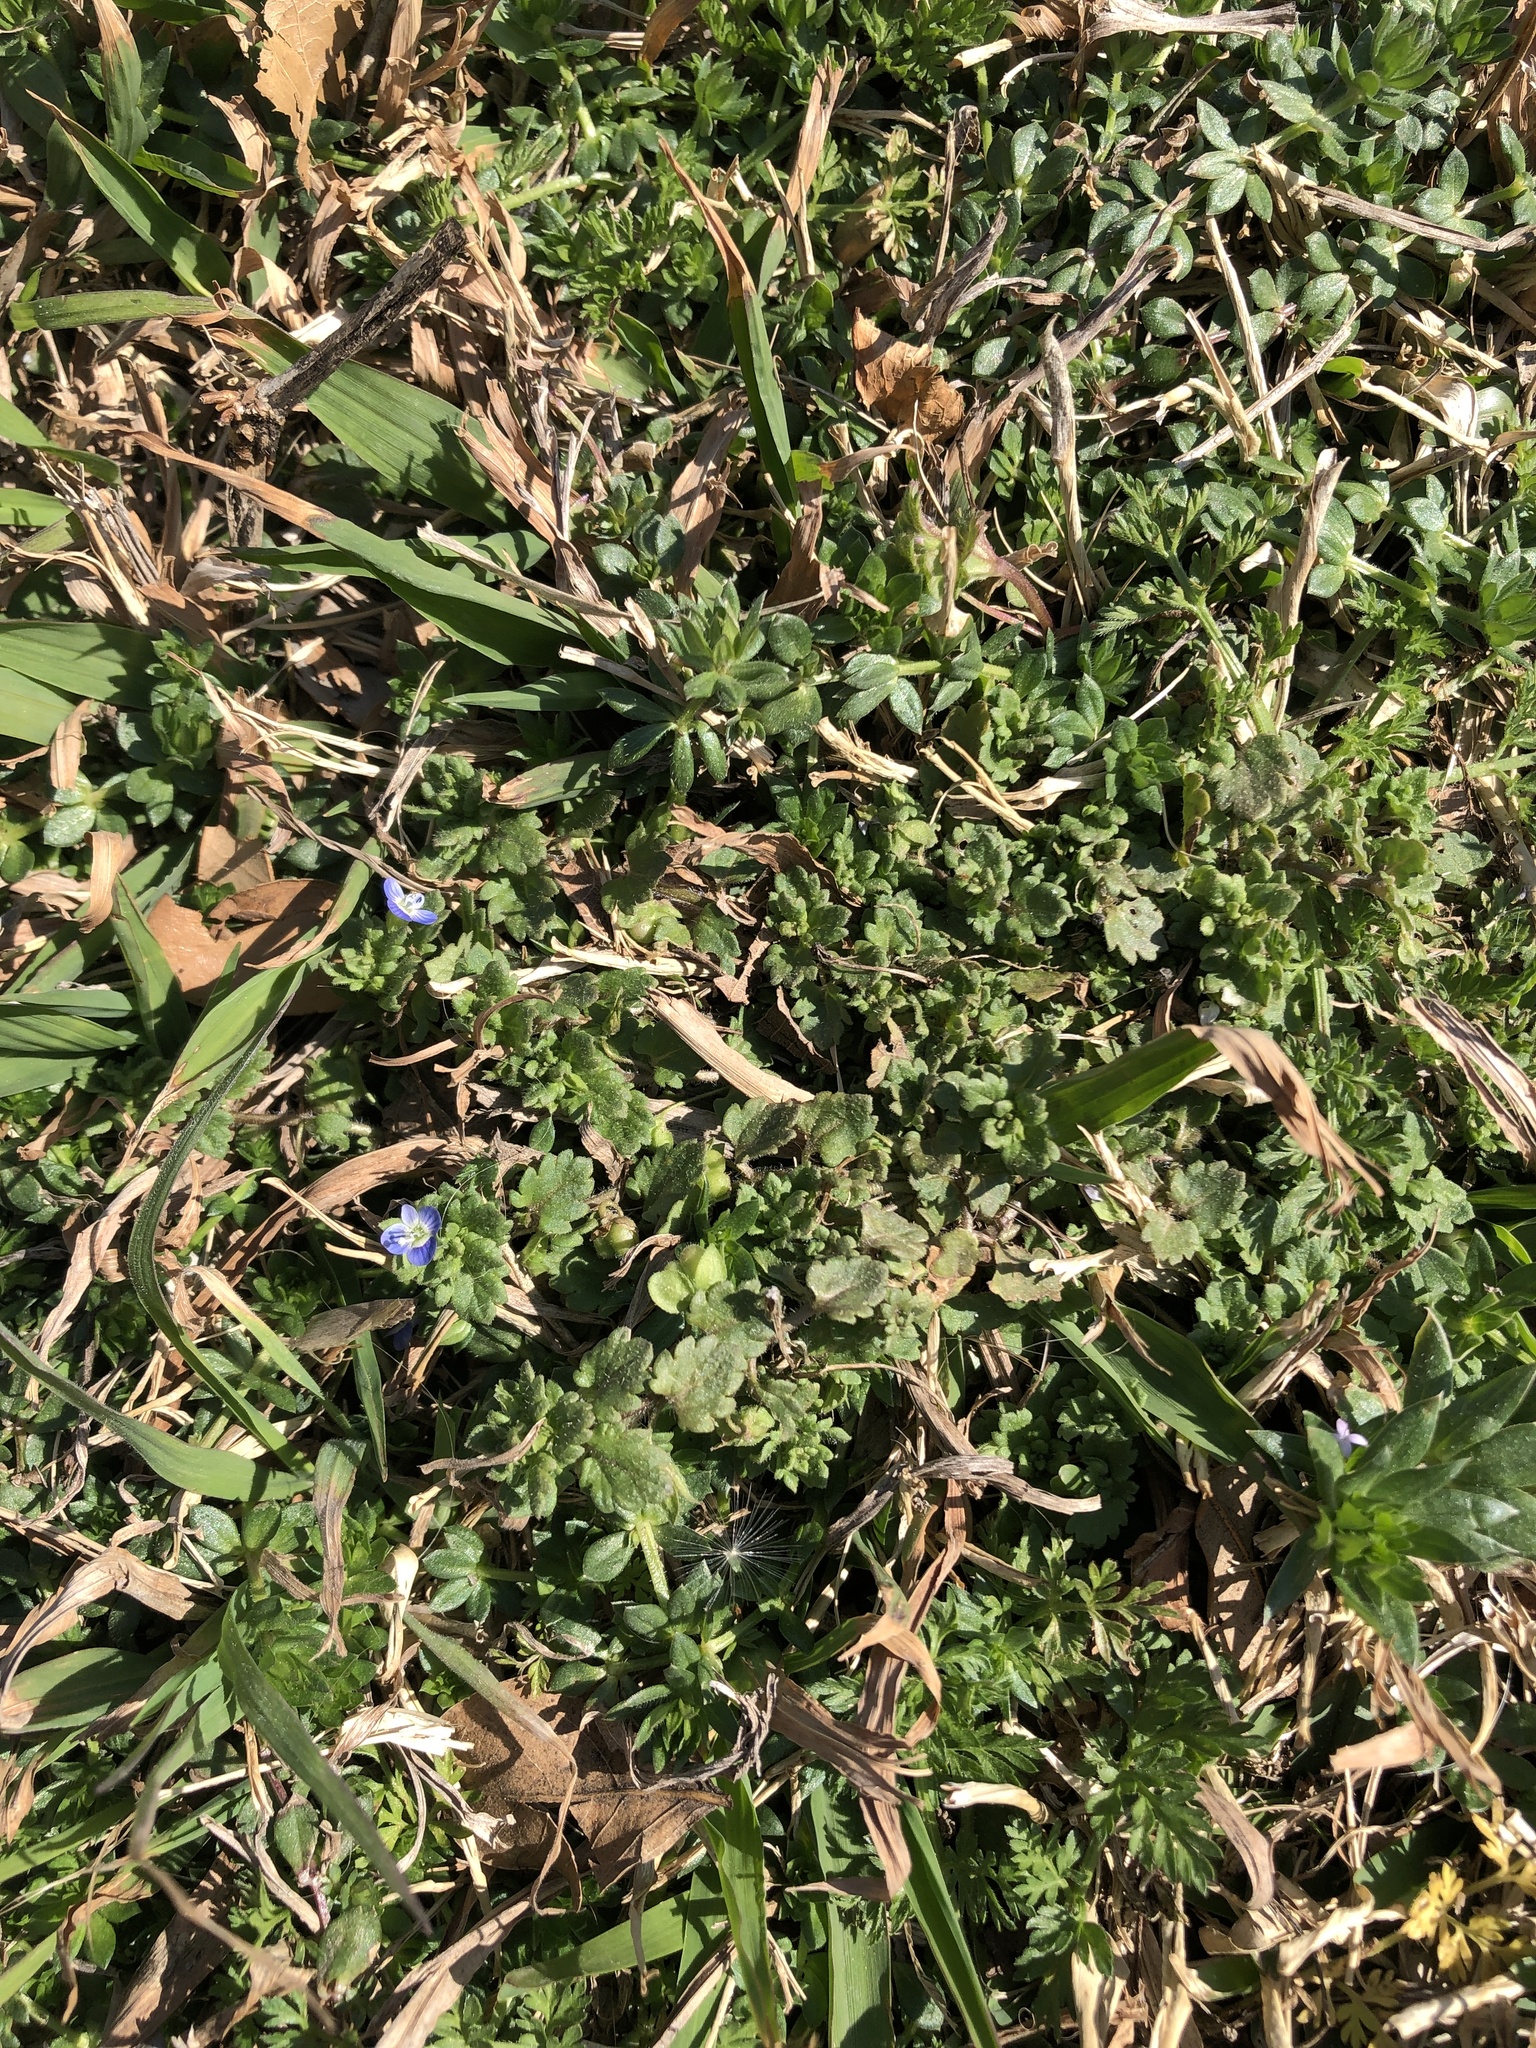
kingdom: Plantae
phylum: Tracheophyta
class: Magnoliopsida
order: Lamiales
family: Plantaginaceae
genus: Veronica
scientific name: Veronica polita
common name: Grey field-speedwell
